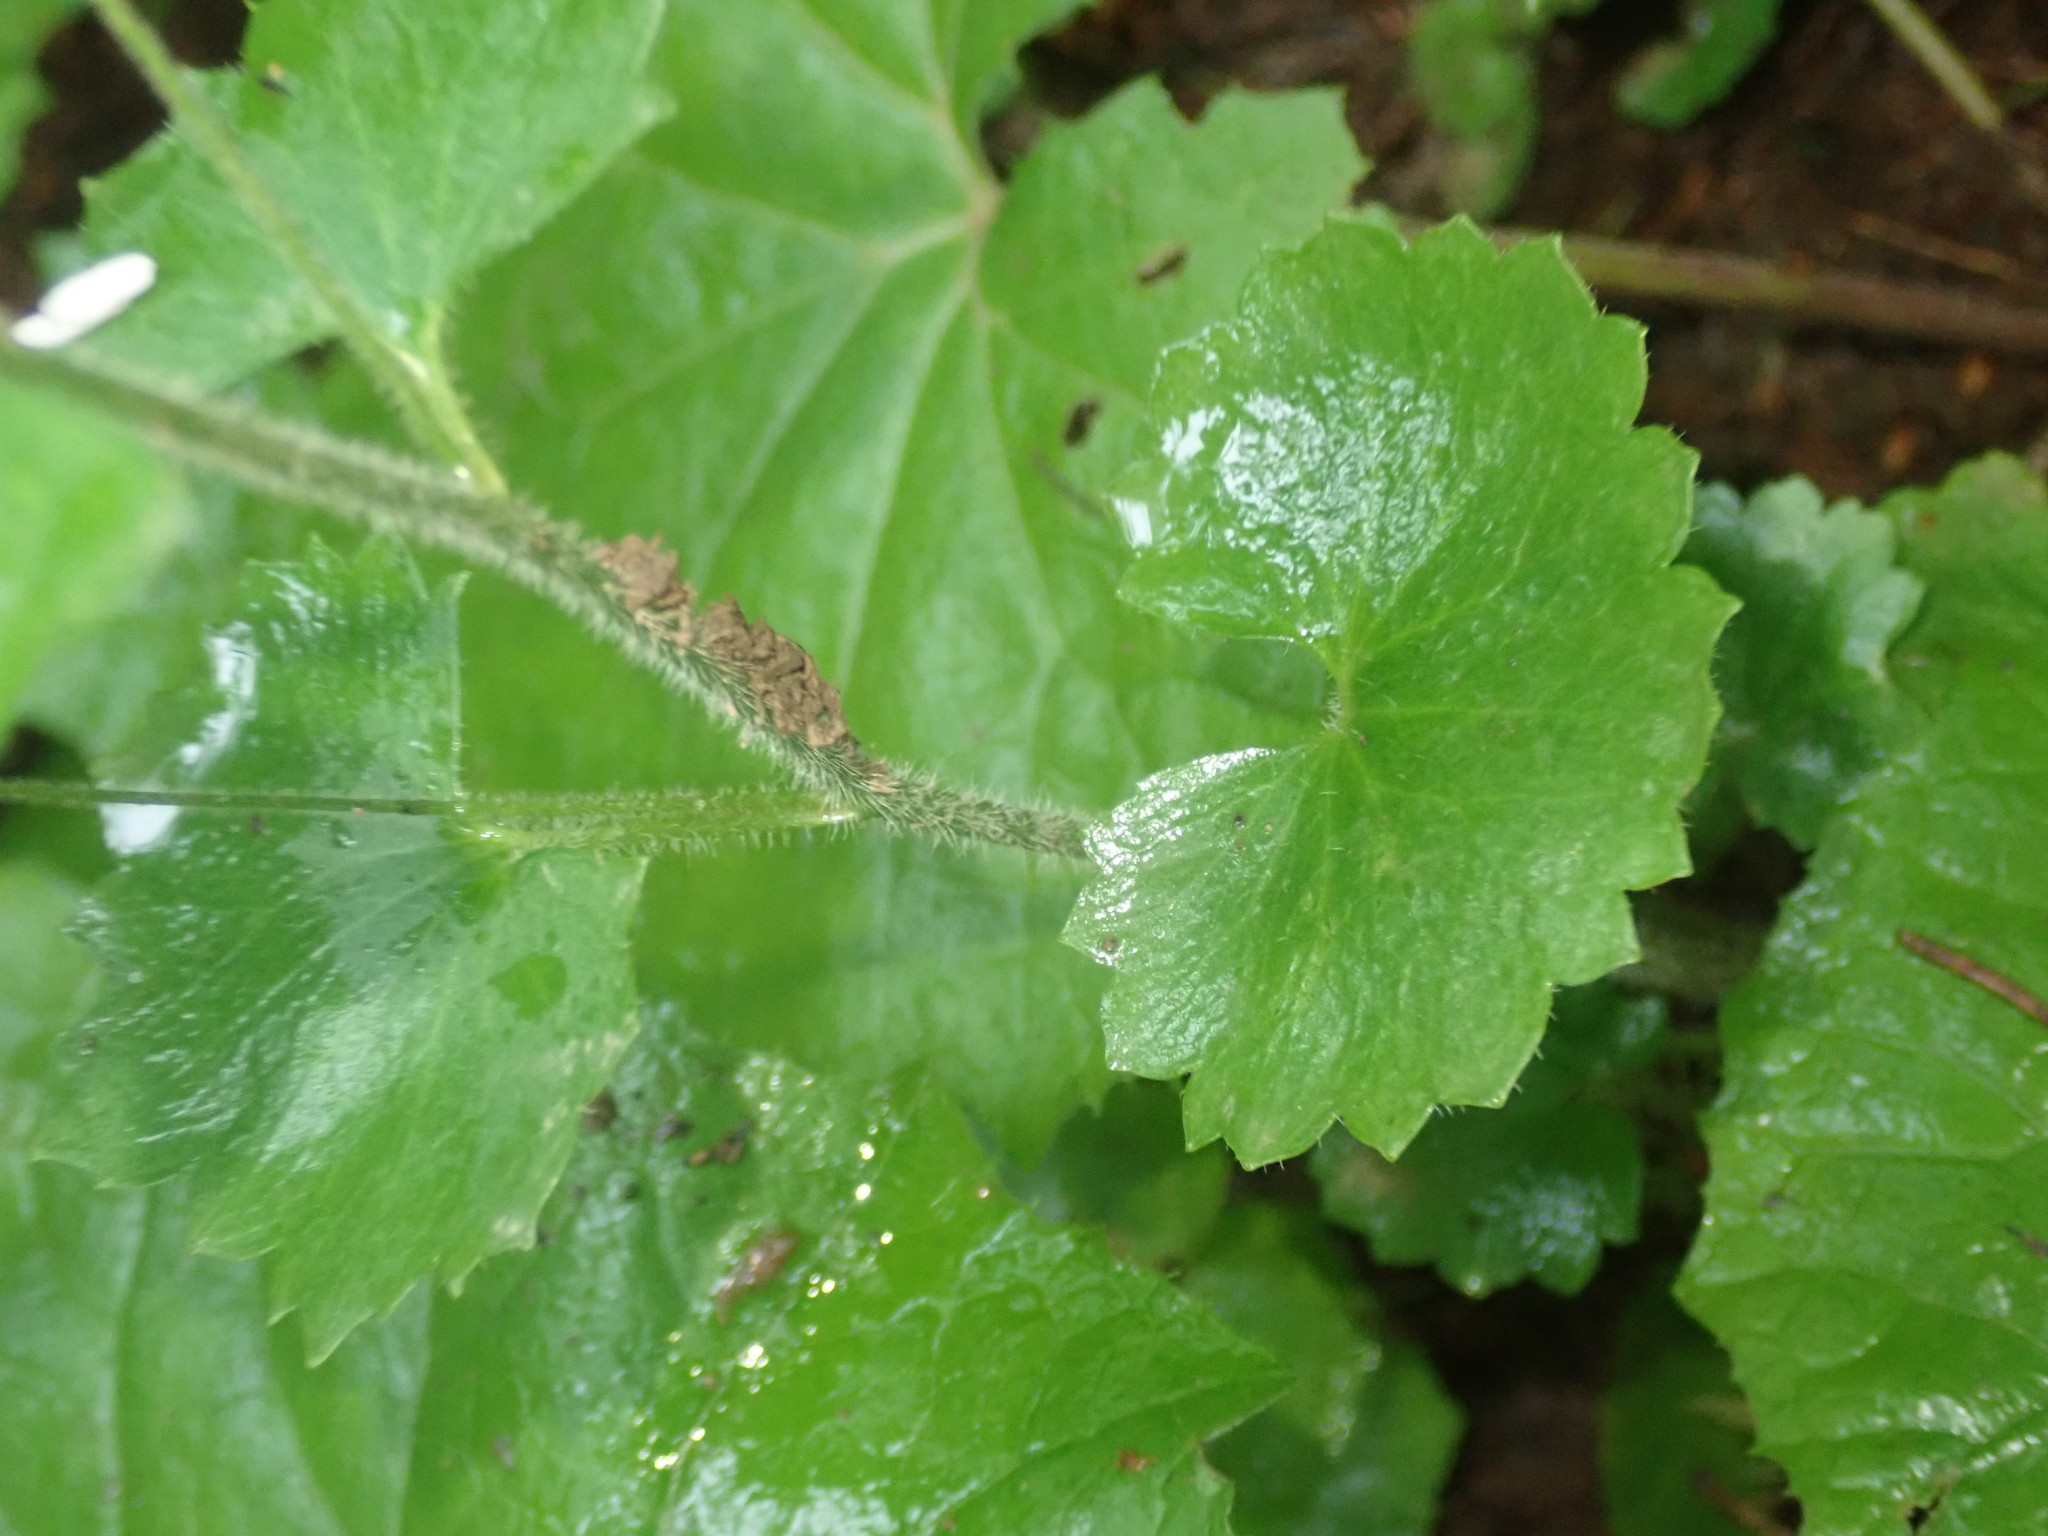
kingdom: Plantae
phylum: Tracheophyta
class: Magnoliopsida
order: Saxifragales
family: Saxifragaceae
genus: Saxifraga
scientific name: Saxifraga rotundifolia
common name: Round-leaved saxifrage
